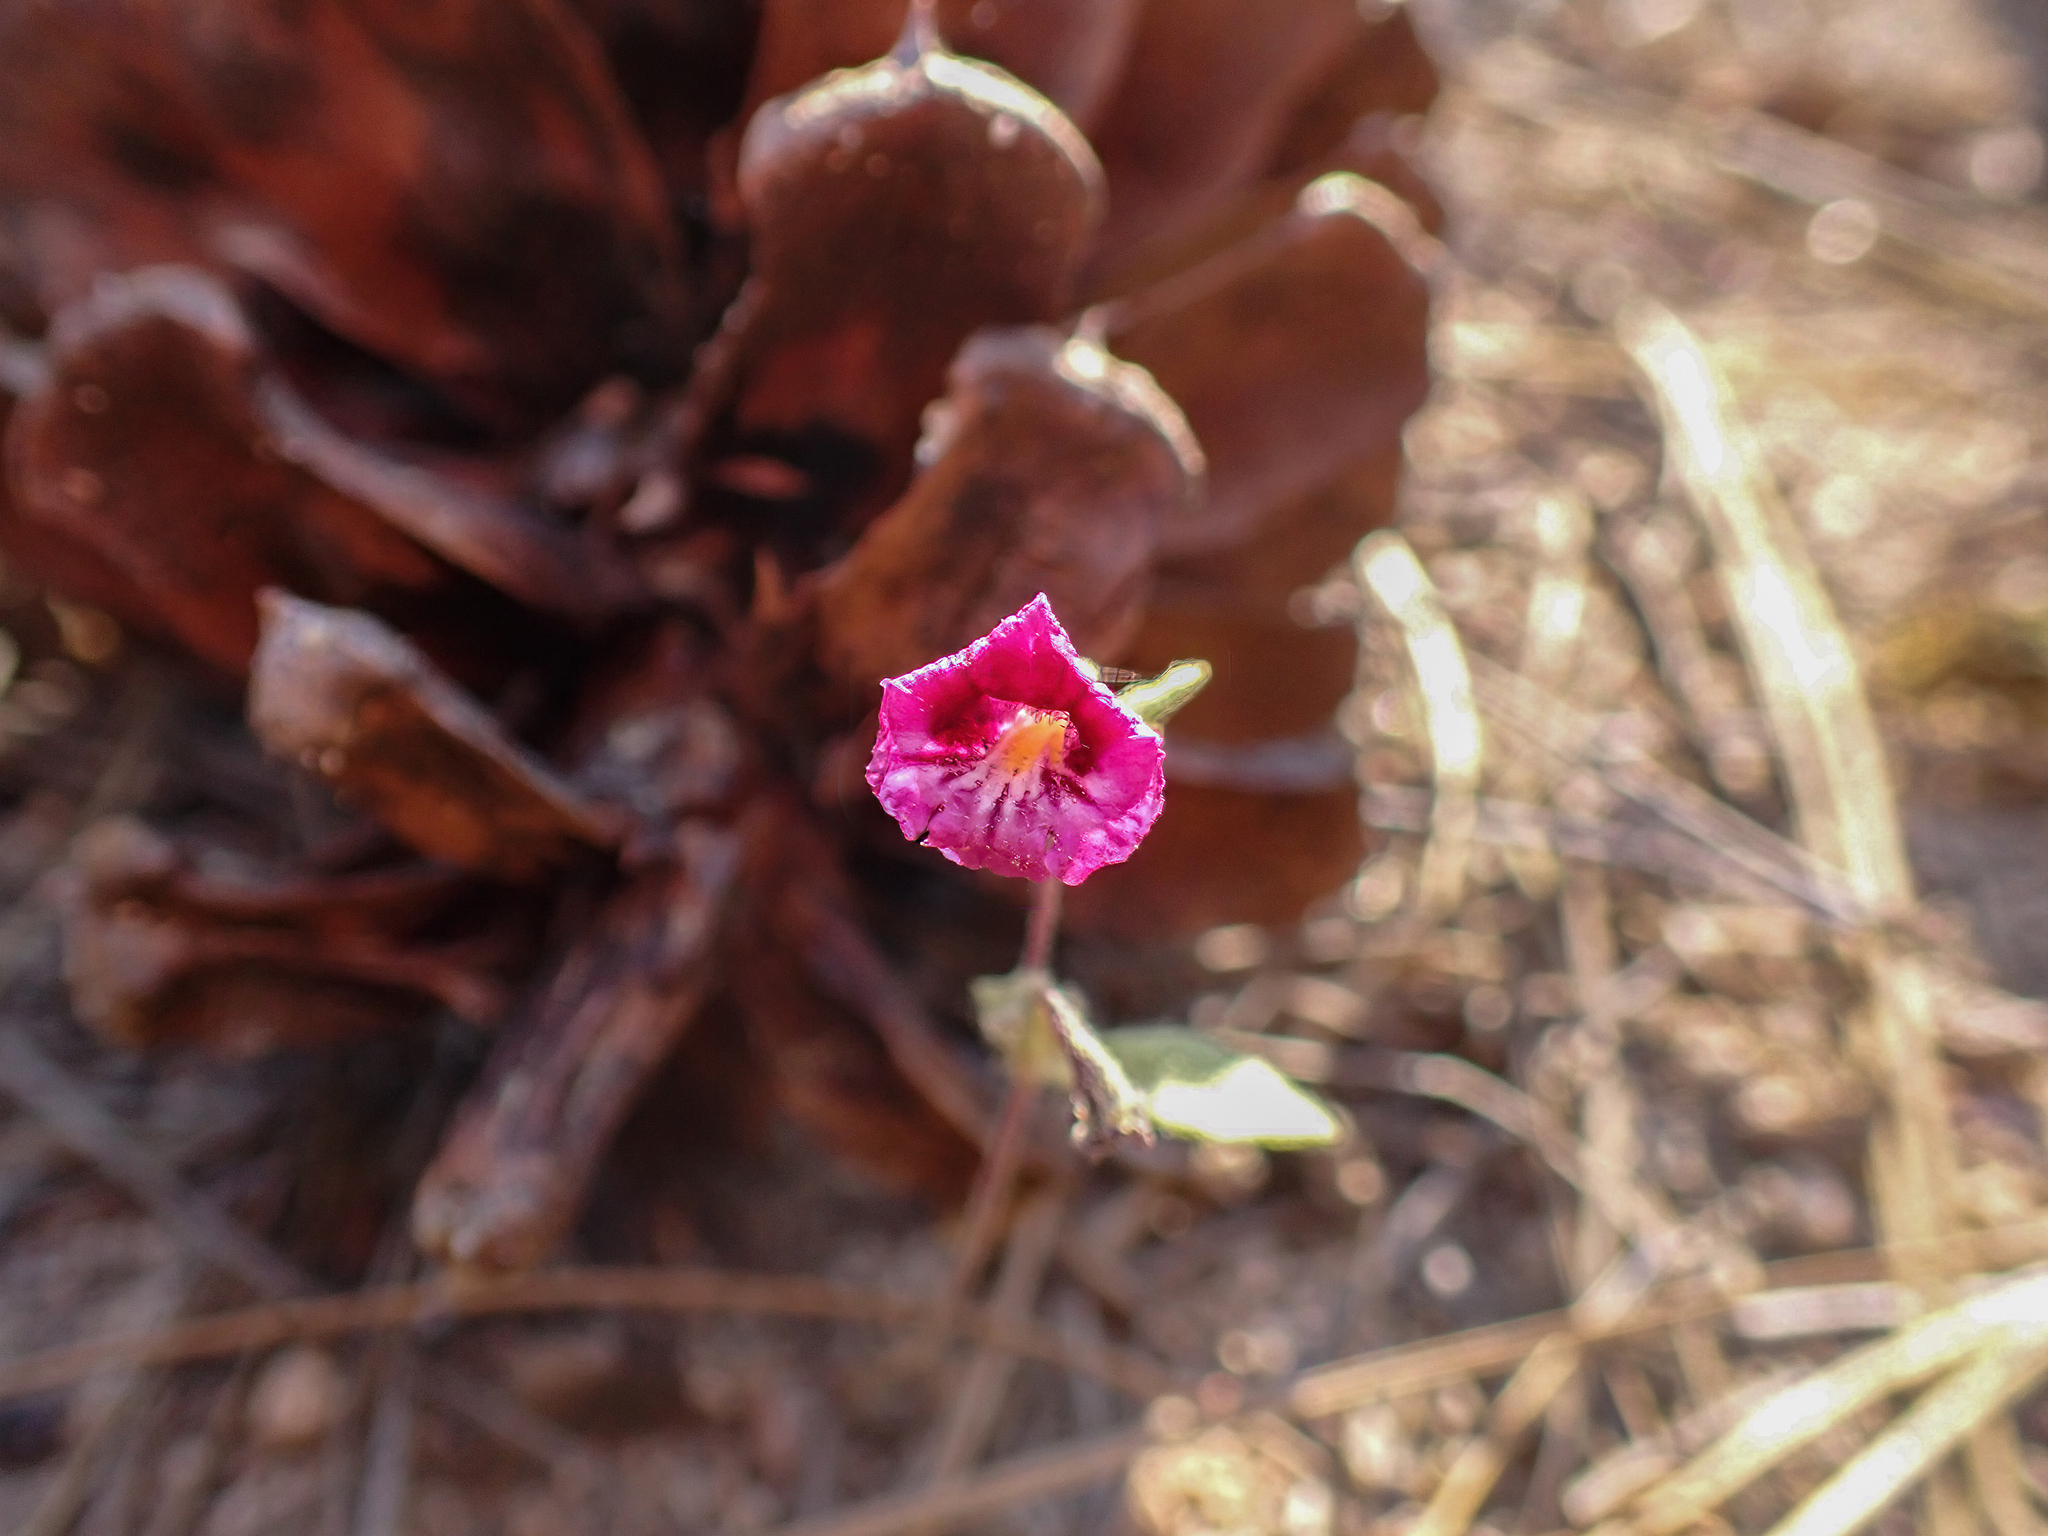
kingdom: Plantae
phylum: Tracheophyta
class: Magnoliopsida
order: Lamiales
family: Phrymaceae
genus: Diplacus
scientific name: Diplacus constrictus
